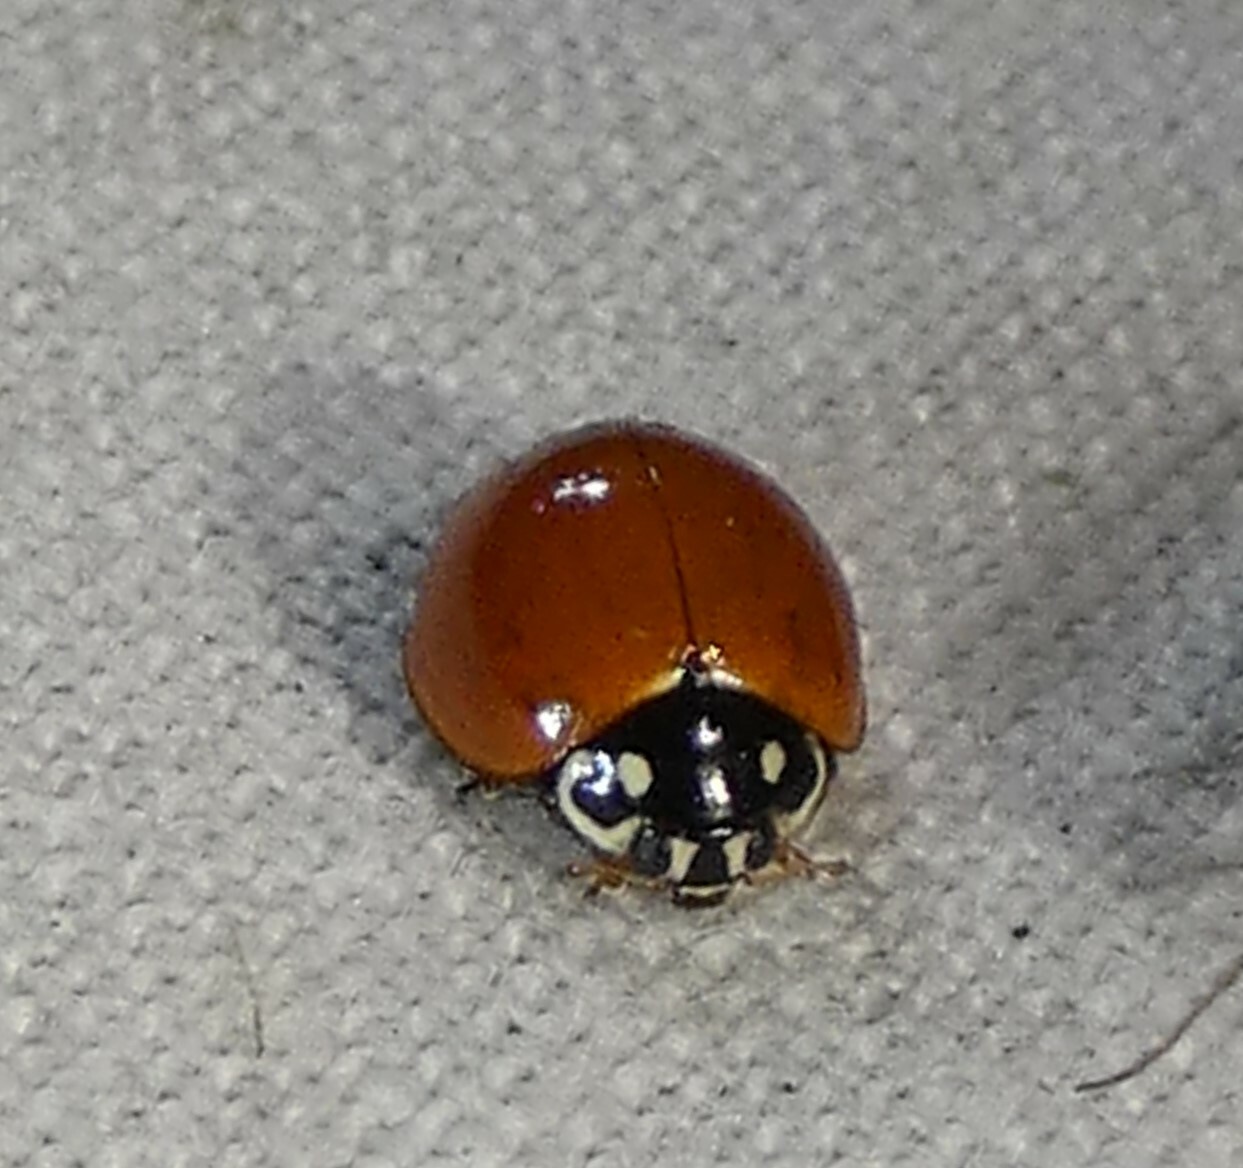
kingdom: Animalia
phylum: Arthropoda
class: Insecta
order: Coleoptera
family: Coccinellidae
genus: Cycloneda
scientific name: Cycloneda sanguinea
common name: Ladybird beetle
